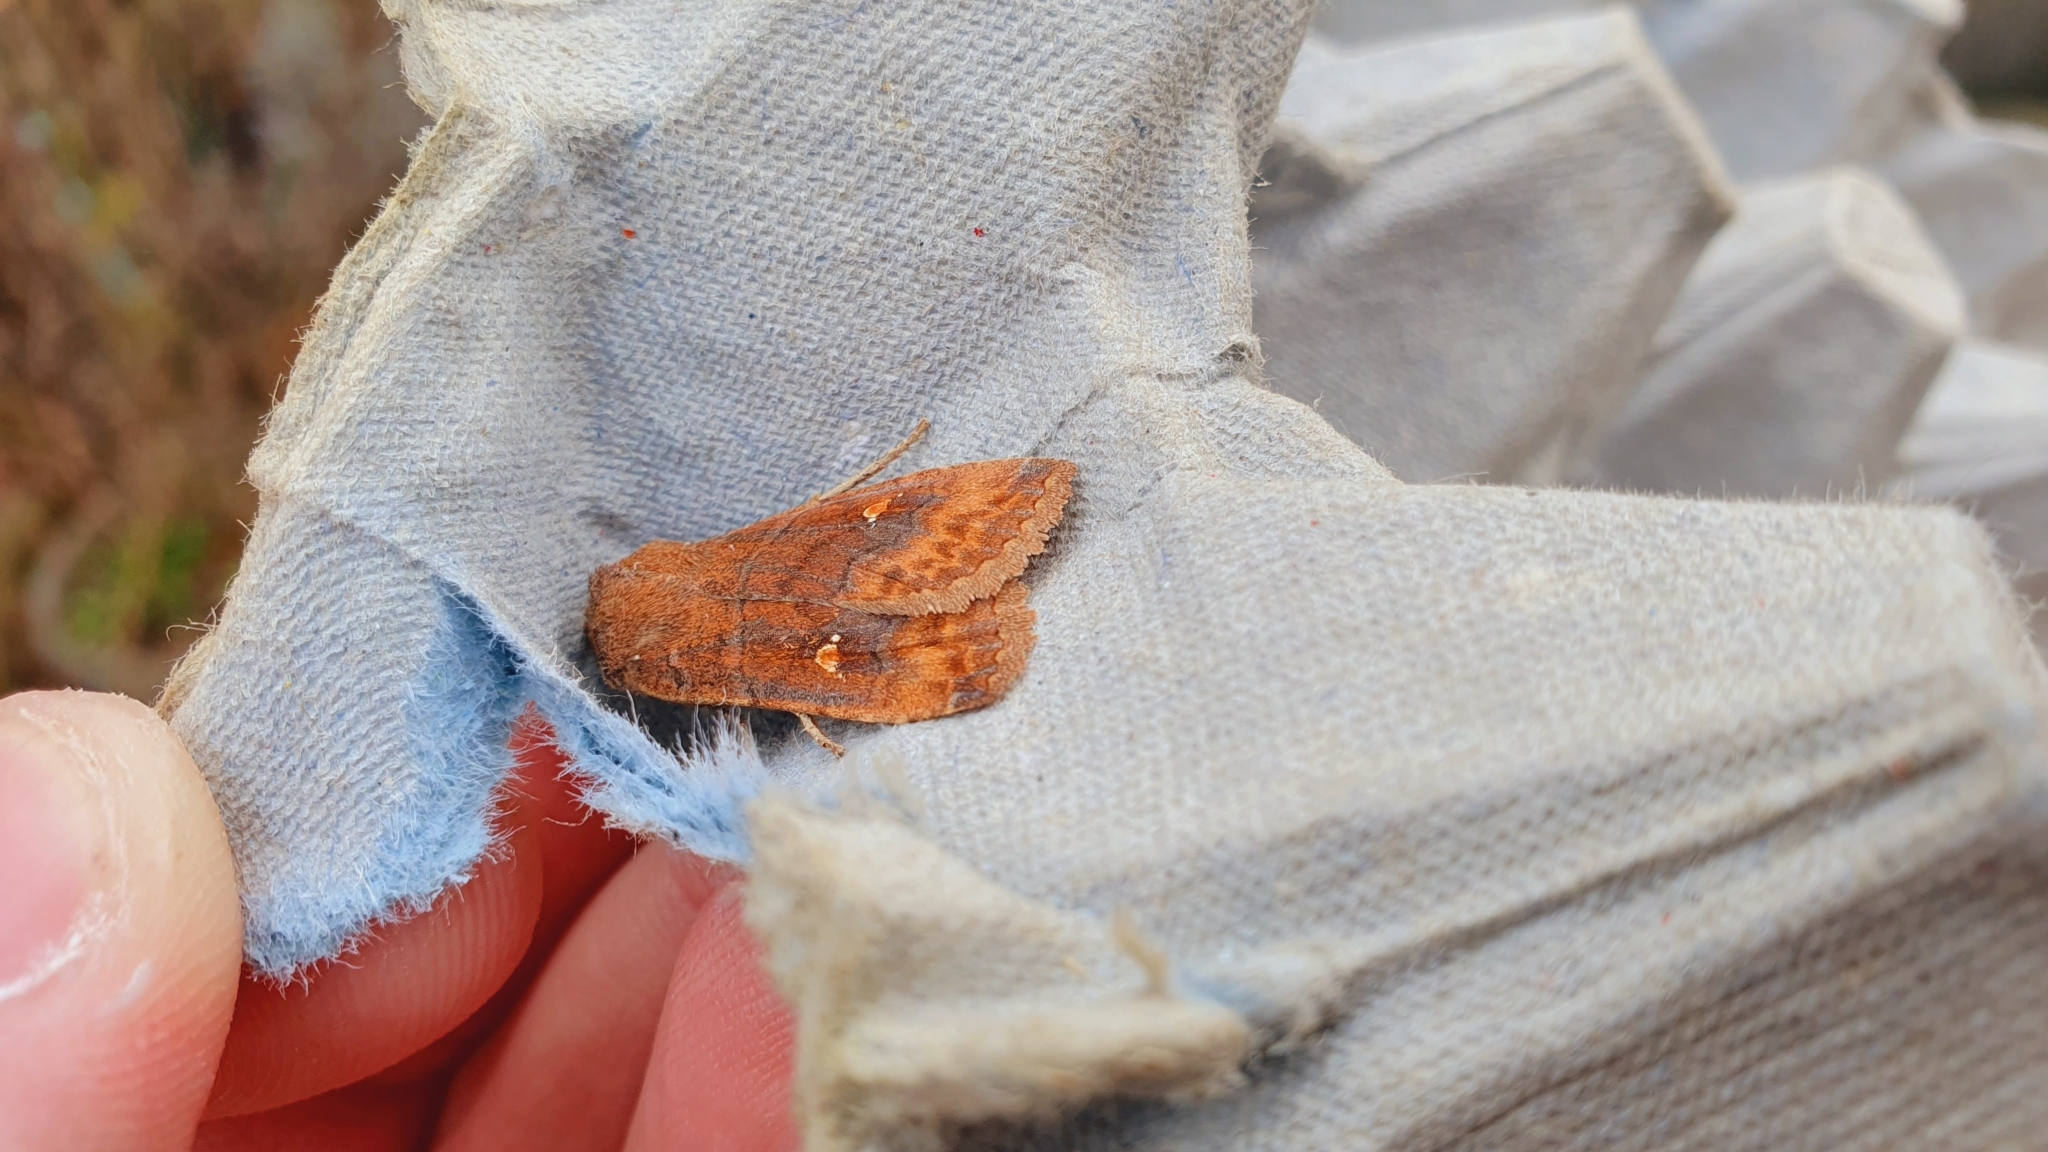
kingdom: Animalia
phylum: Arthropoda
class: Insecta
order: Lepidoptera
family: Noctuidae
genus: Eupsilia
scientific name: Eupsilia transversa
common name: Satellite
